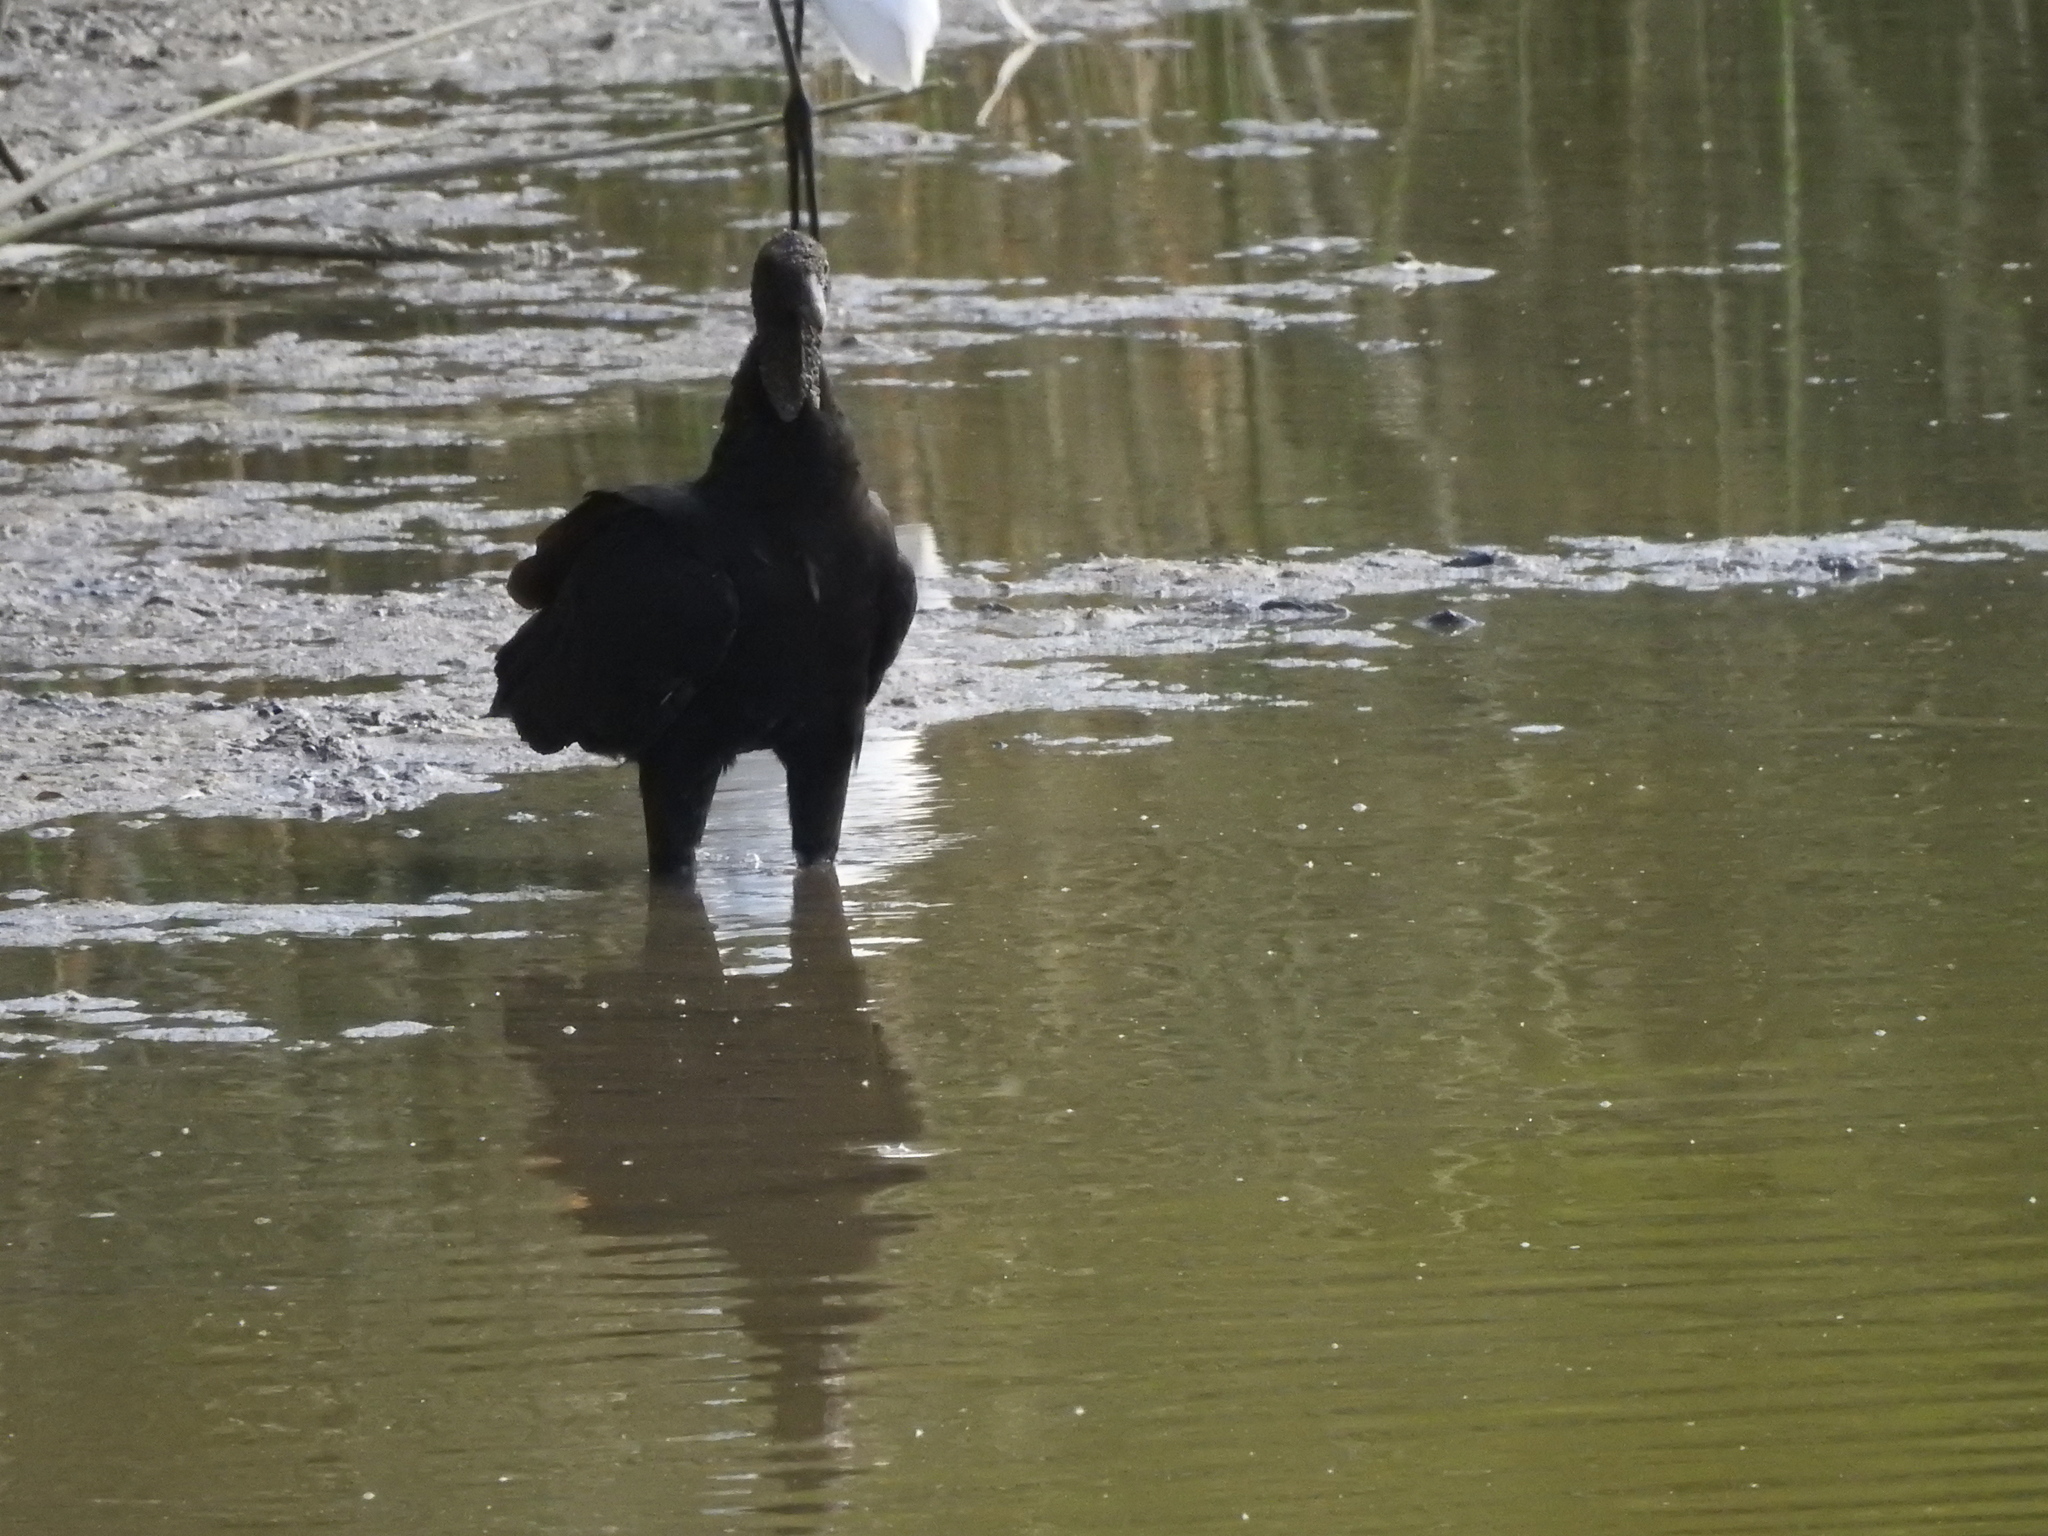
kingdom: Animalia
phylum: Chordata
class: Aves
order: Accipitriformes
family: Cathartidae
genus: Coragyps
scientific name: Coragyps atratus
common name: Black vulture
